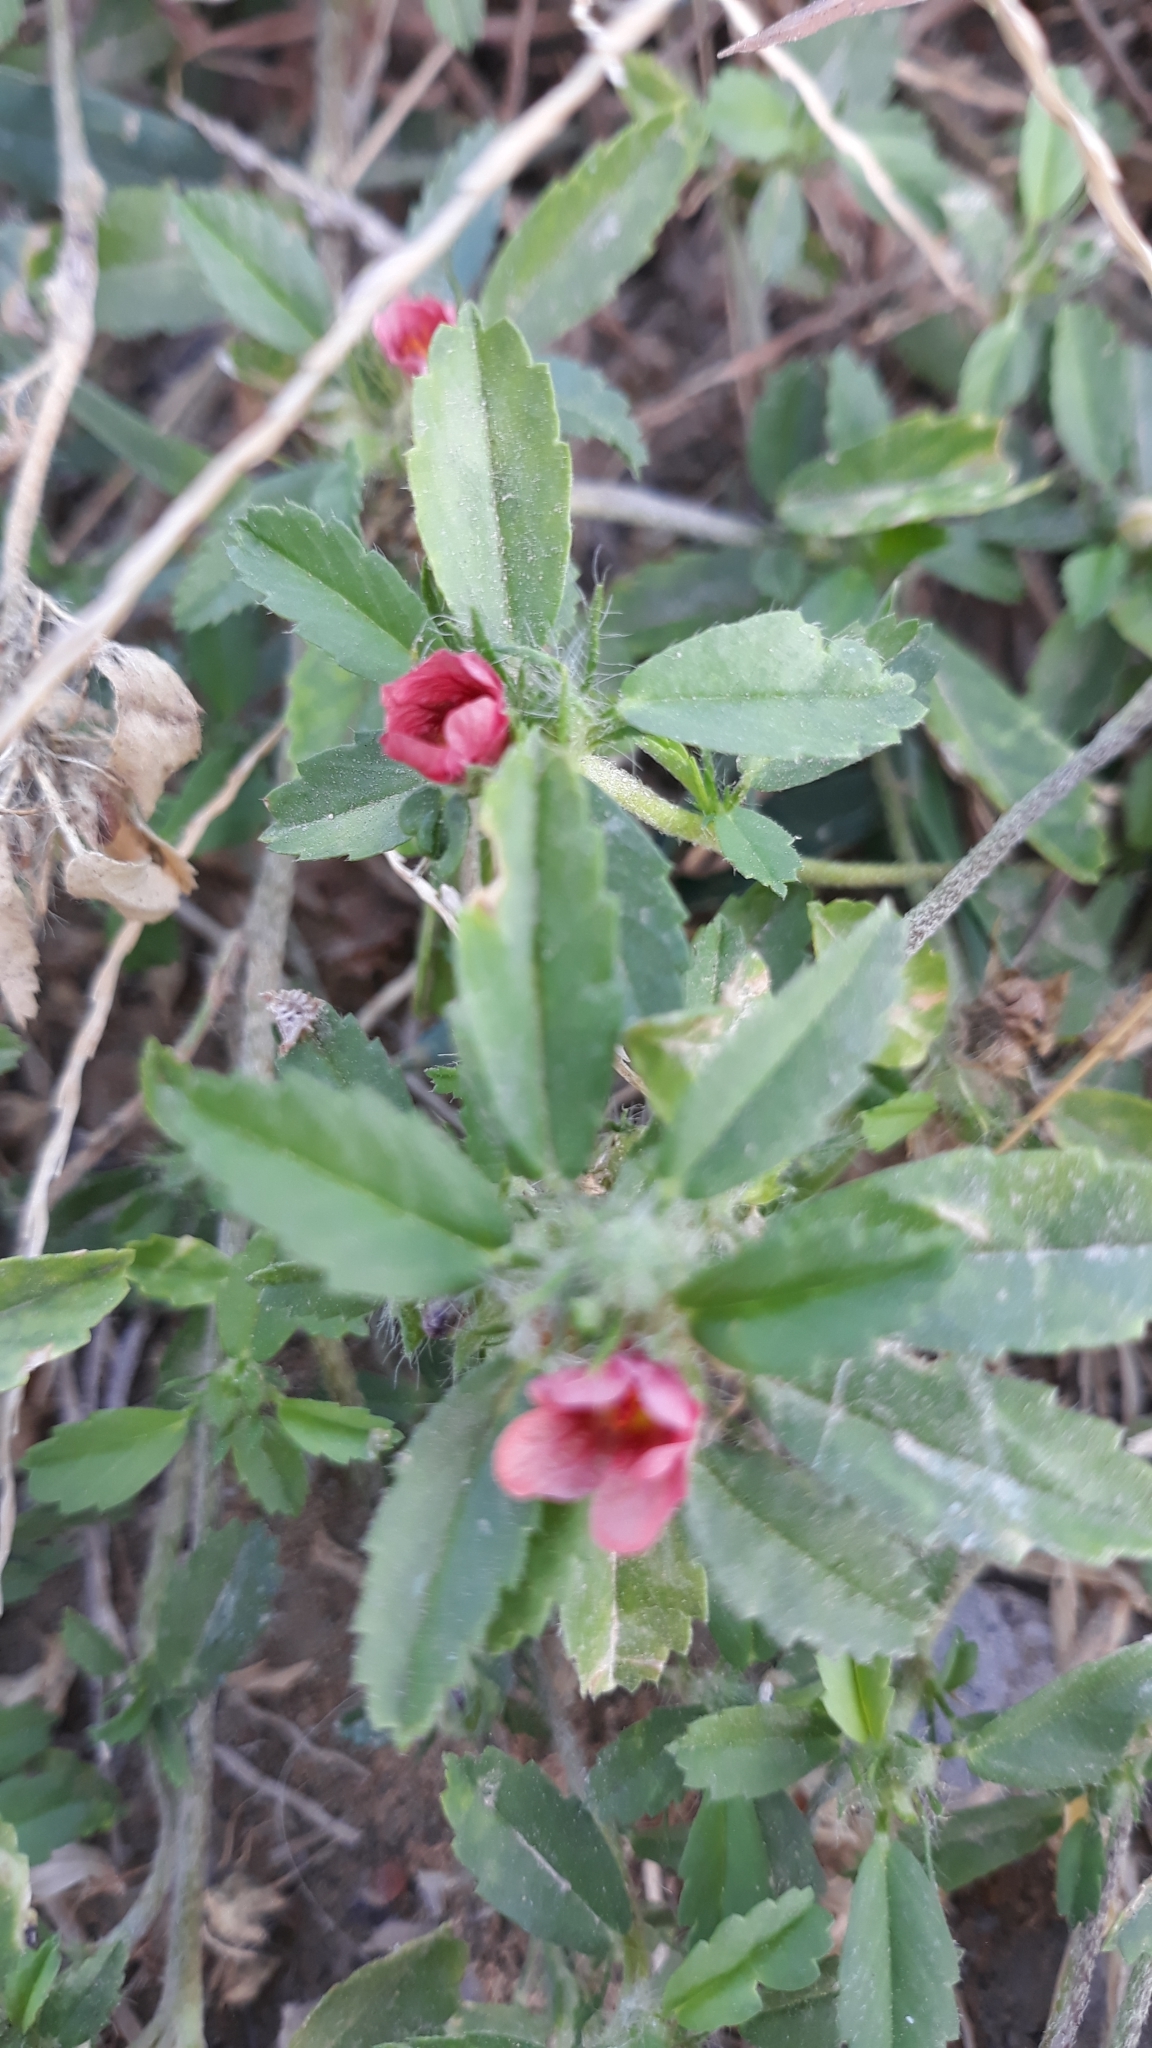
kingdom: Plantae
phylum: Tracheophyta
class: Magnoliopsida
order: Malvales
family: Malvaceae
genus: Sida
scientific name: Sida ciliaris
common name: Bracted fanpetals
